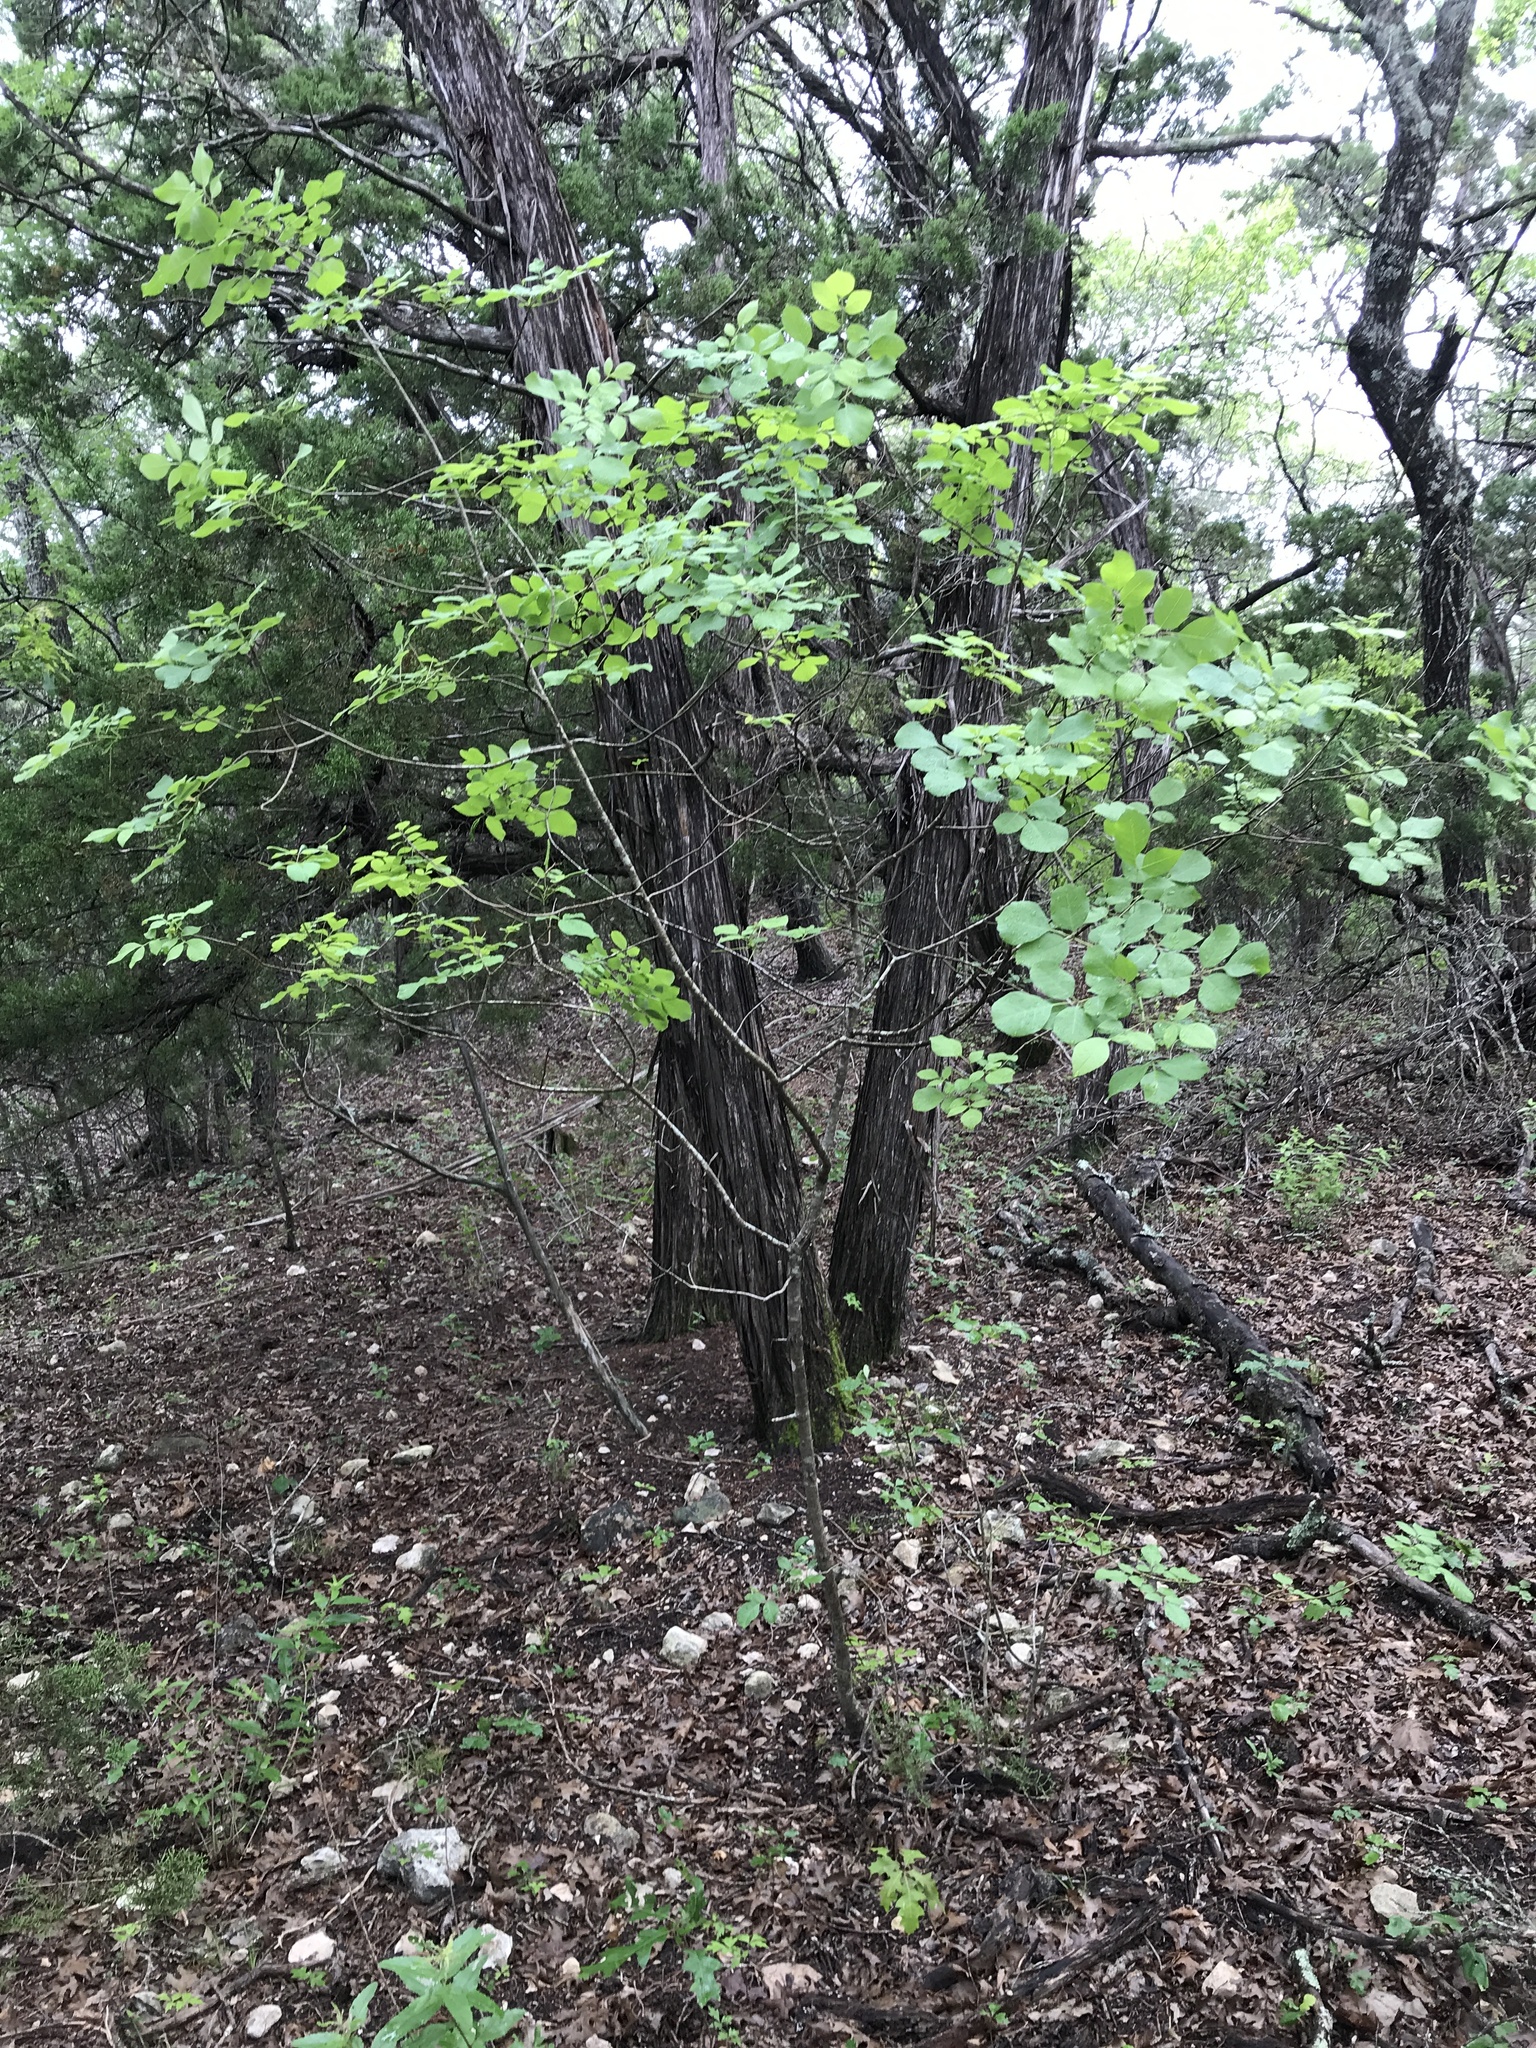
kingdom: Plantae
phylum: Tracheophyta
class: Magnoliopsida
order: Lamiales
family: Oleaceae
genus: Fraxinus
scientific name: Fraxinus albicans
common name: Texas ash
